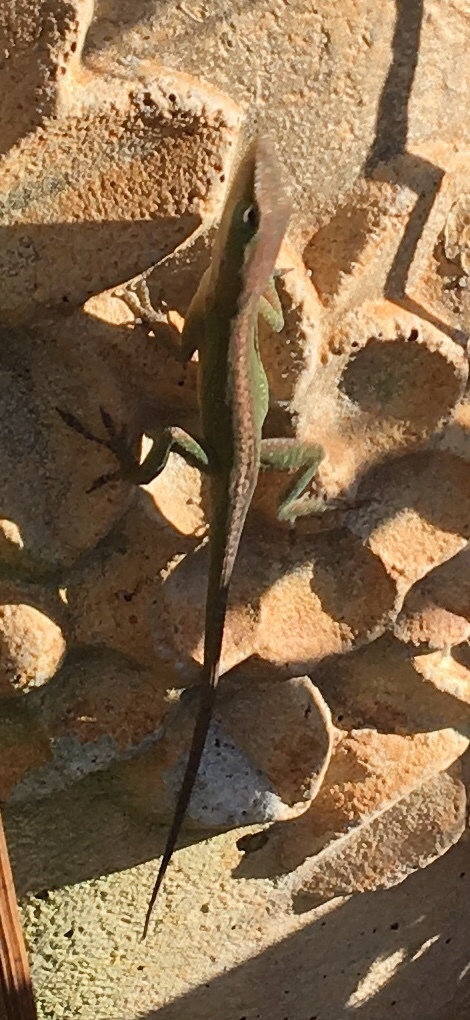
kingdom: Animalia
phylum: Chordata
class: Squamata
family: Dactyloidae
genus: Anolis
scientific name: Anolis carolinensis
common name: Green anole
